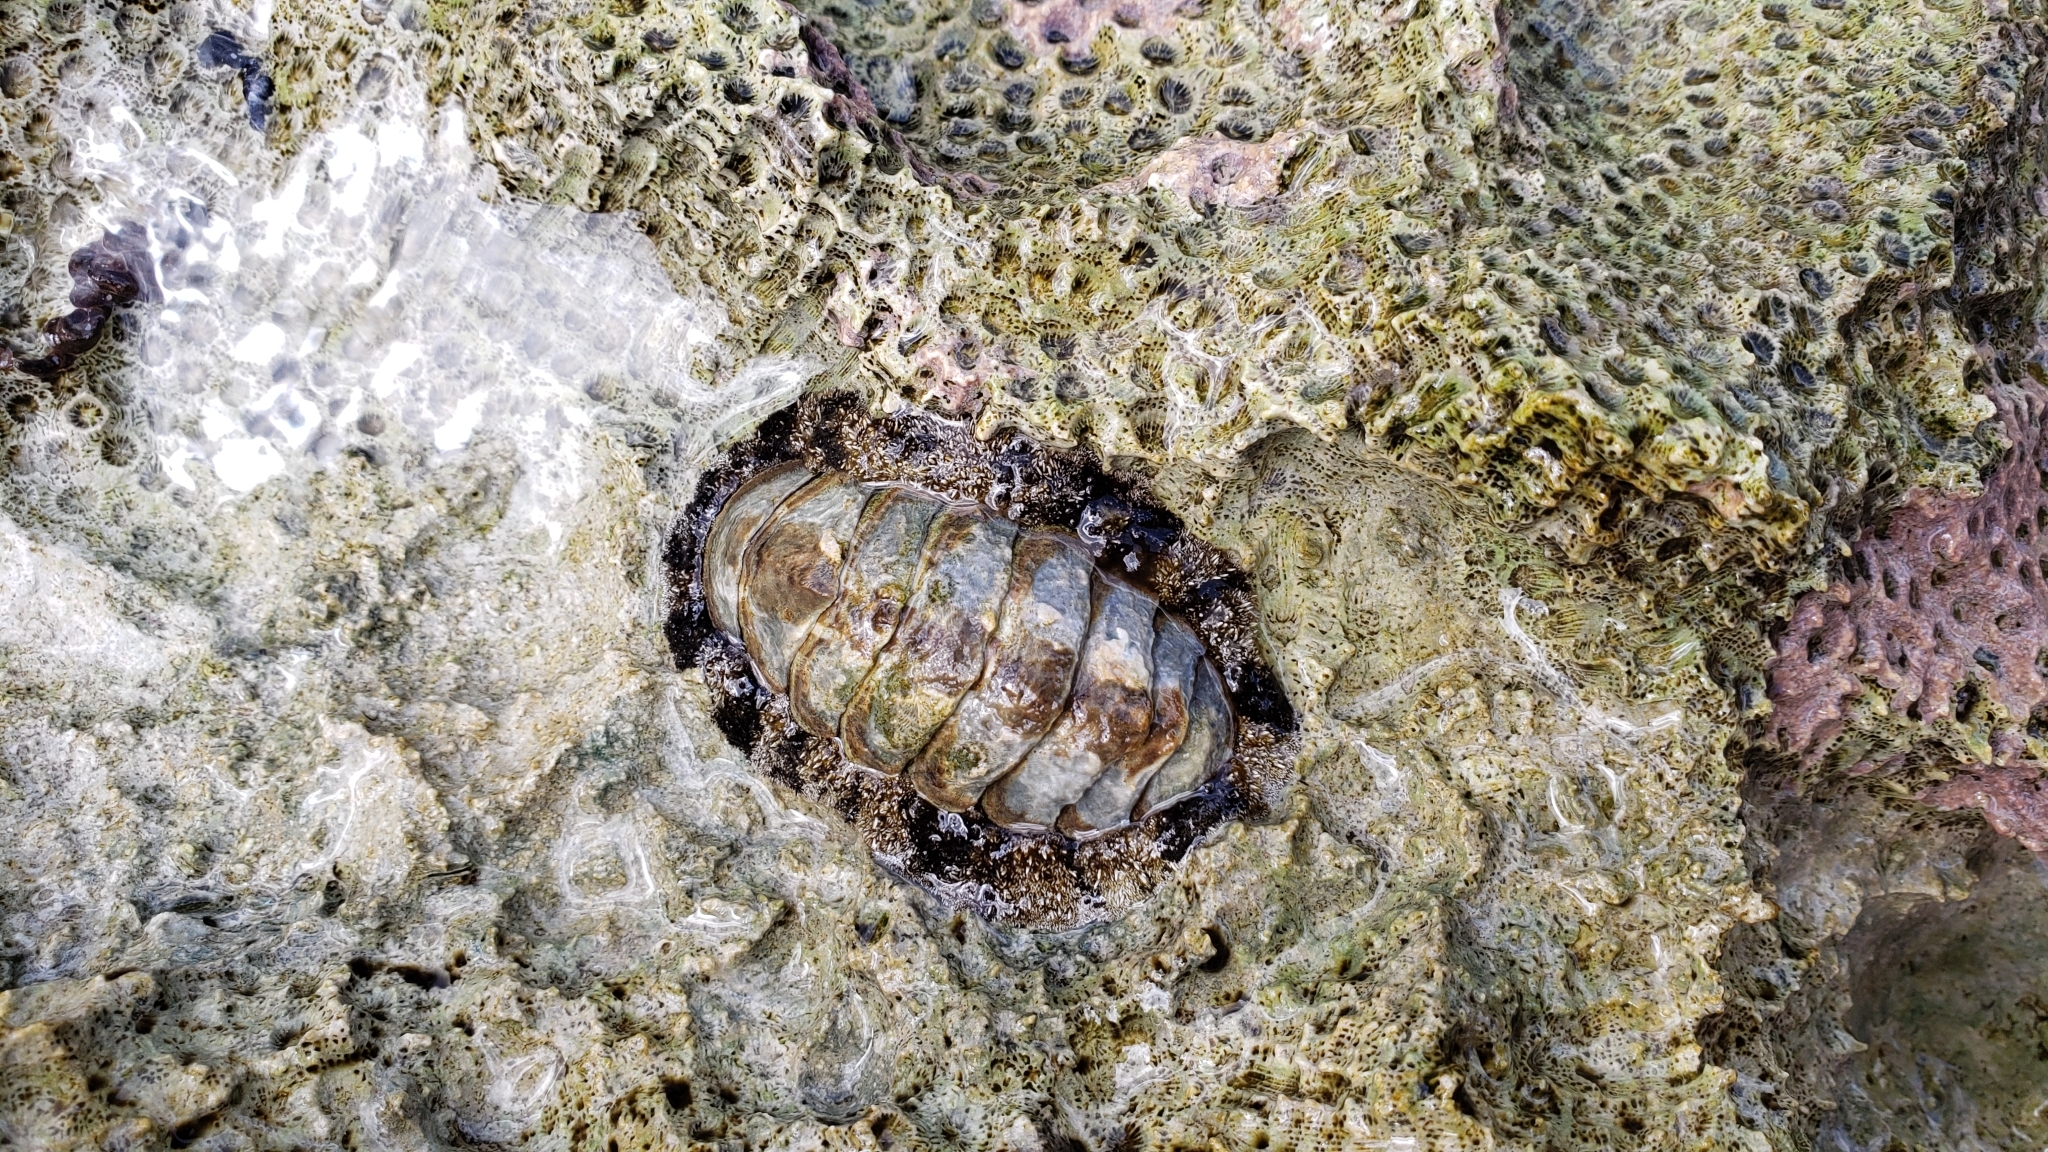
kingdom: Animalia
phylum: Mollusca
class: Polyplacophora
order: Chitonida
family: Chitonidae
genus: Acanthopleura
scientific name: Acanthopleura granulata
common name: West indian fuzzy chiton
